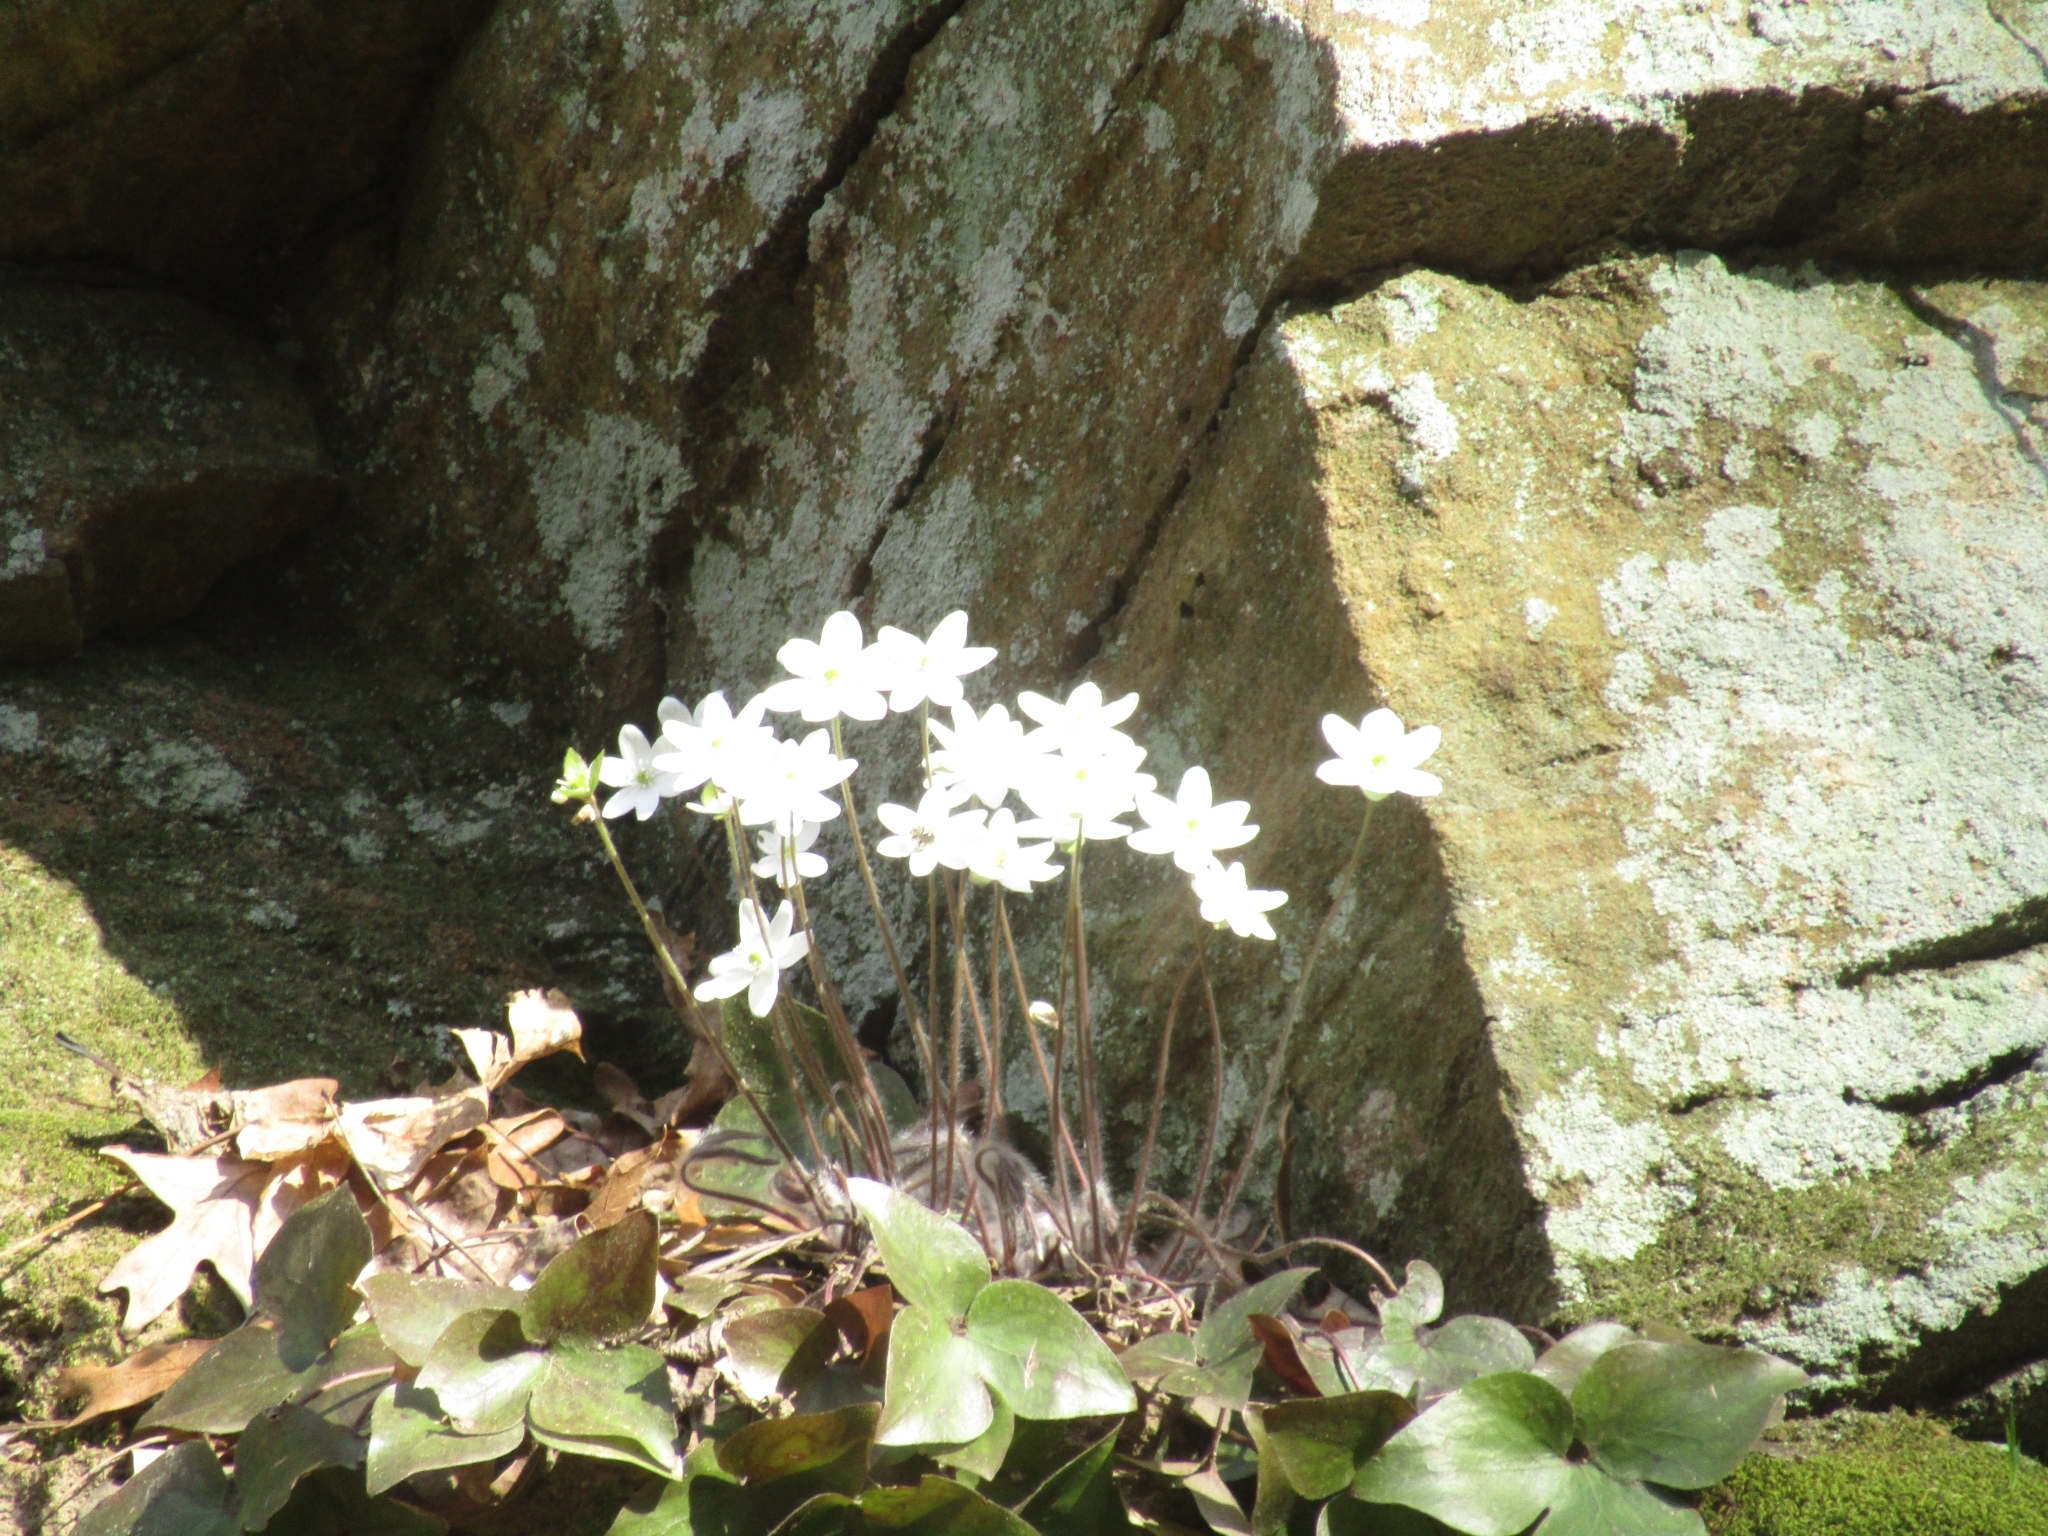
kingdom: Plantae
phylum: Tracheophyta
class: Magnoliopsida
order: Ranunculales
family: Ranunculaceae
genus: Hepatica
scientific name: Hepatica acutiloba
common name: Sharp-lobed hepatica
